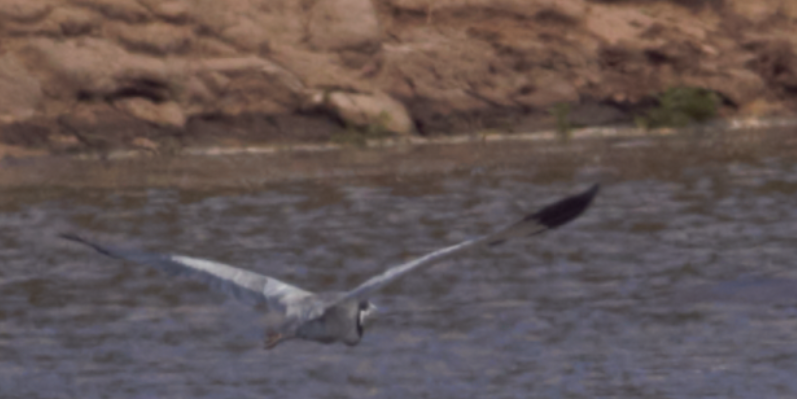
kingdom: Animalia
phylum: Chordata
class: Aves
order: Pelecaniformes
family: Ardeidae
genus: Ardea
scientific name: Ardea melanocephala
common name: Black-headed heron
